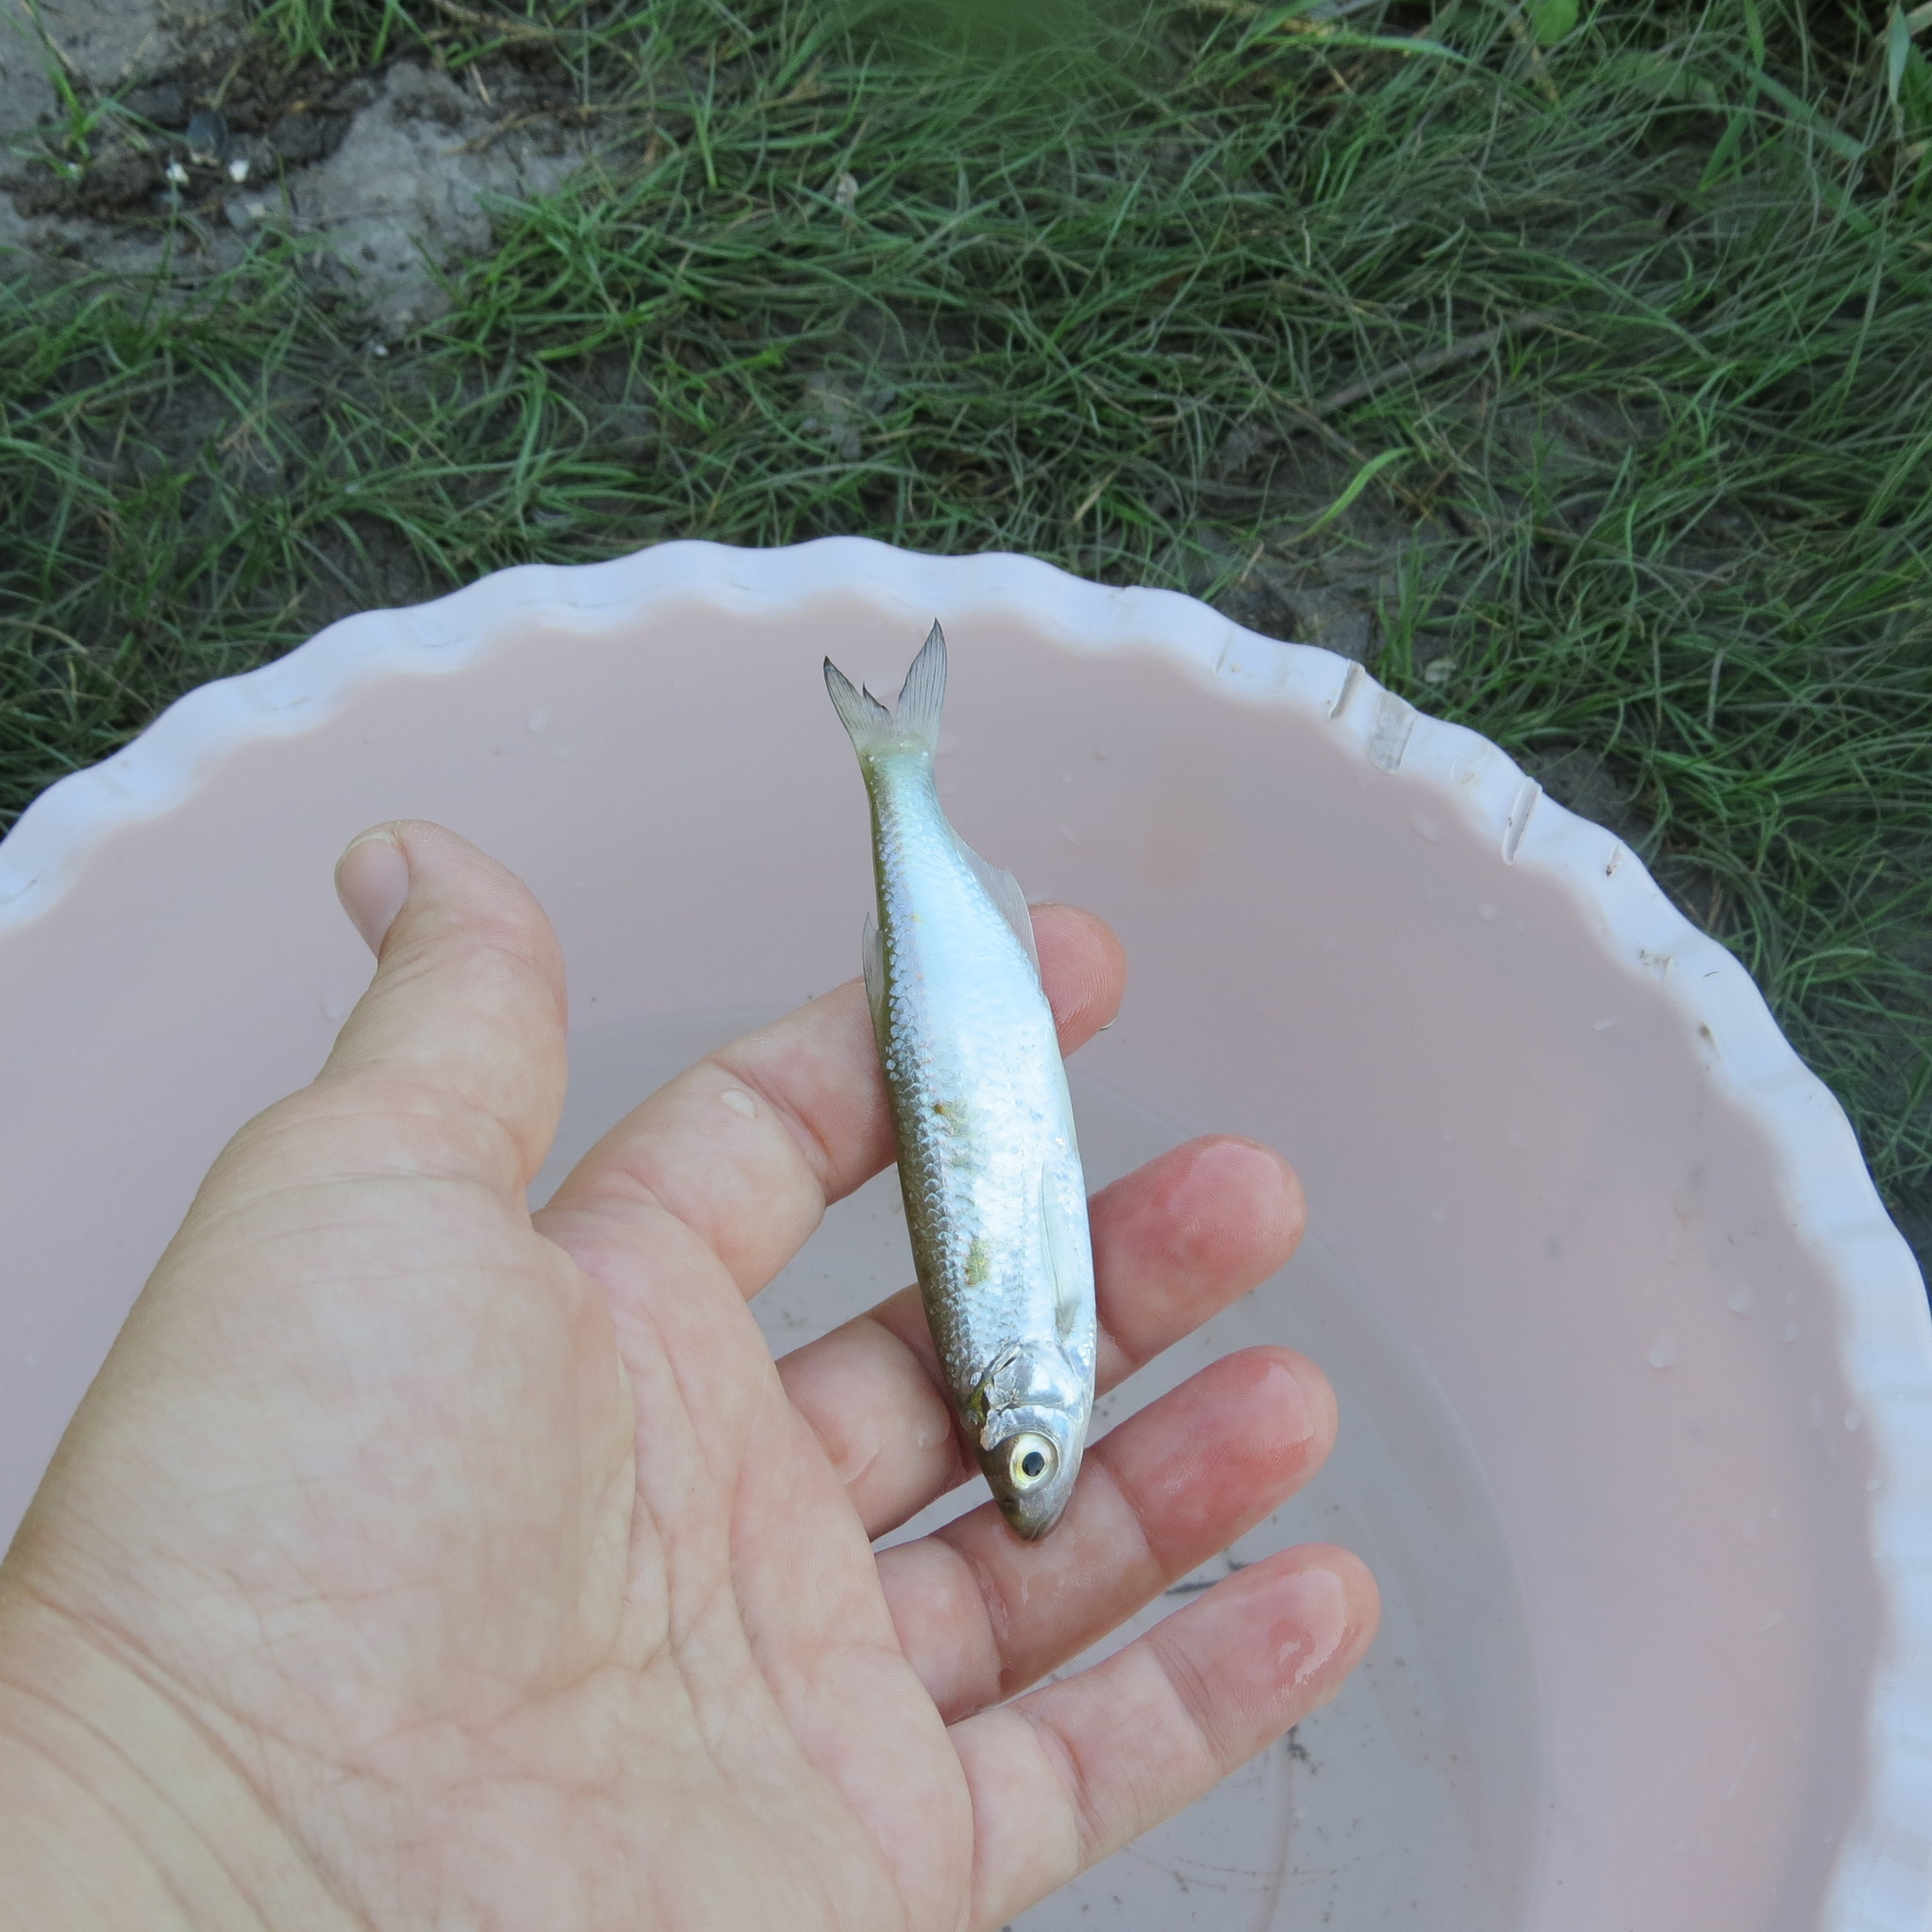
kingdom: Animalia
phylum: Chordata
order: Cypriniformes
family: Cyprinidae
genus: Alburnus
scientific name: Alburnus alburnus
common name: Bleak
